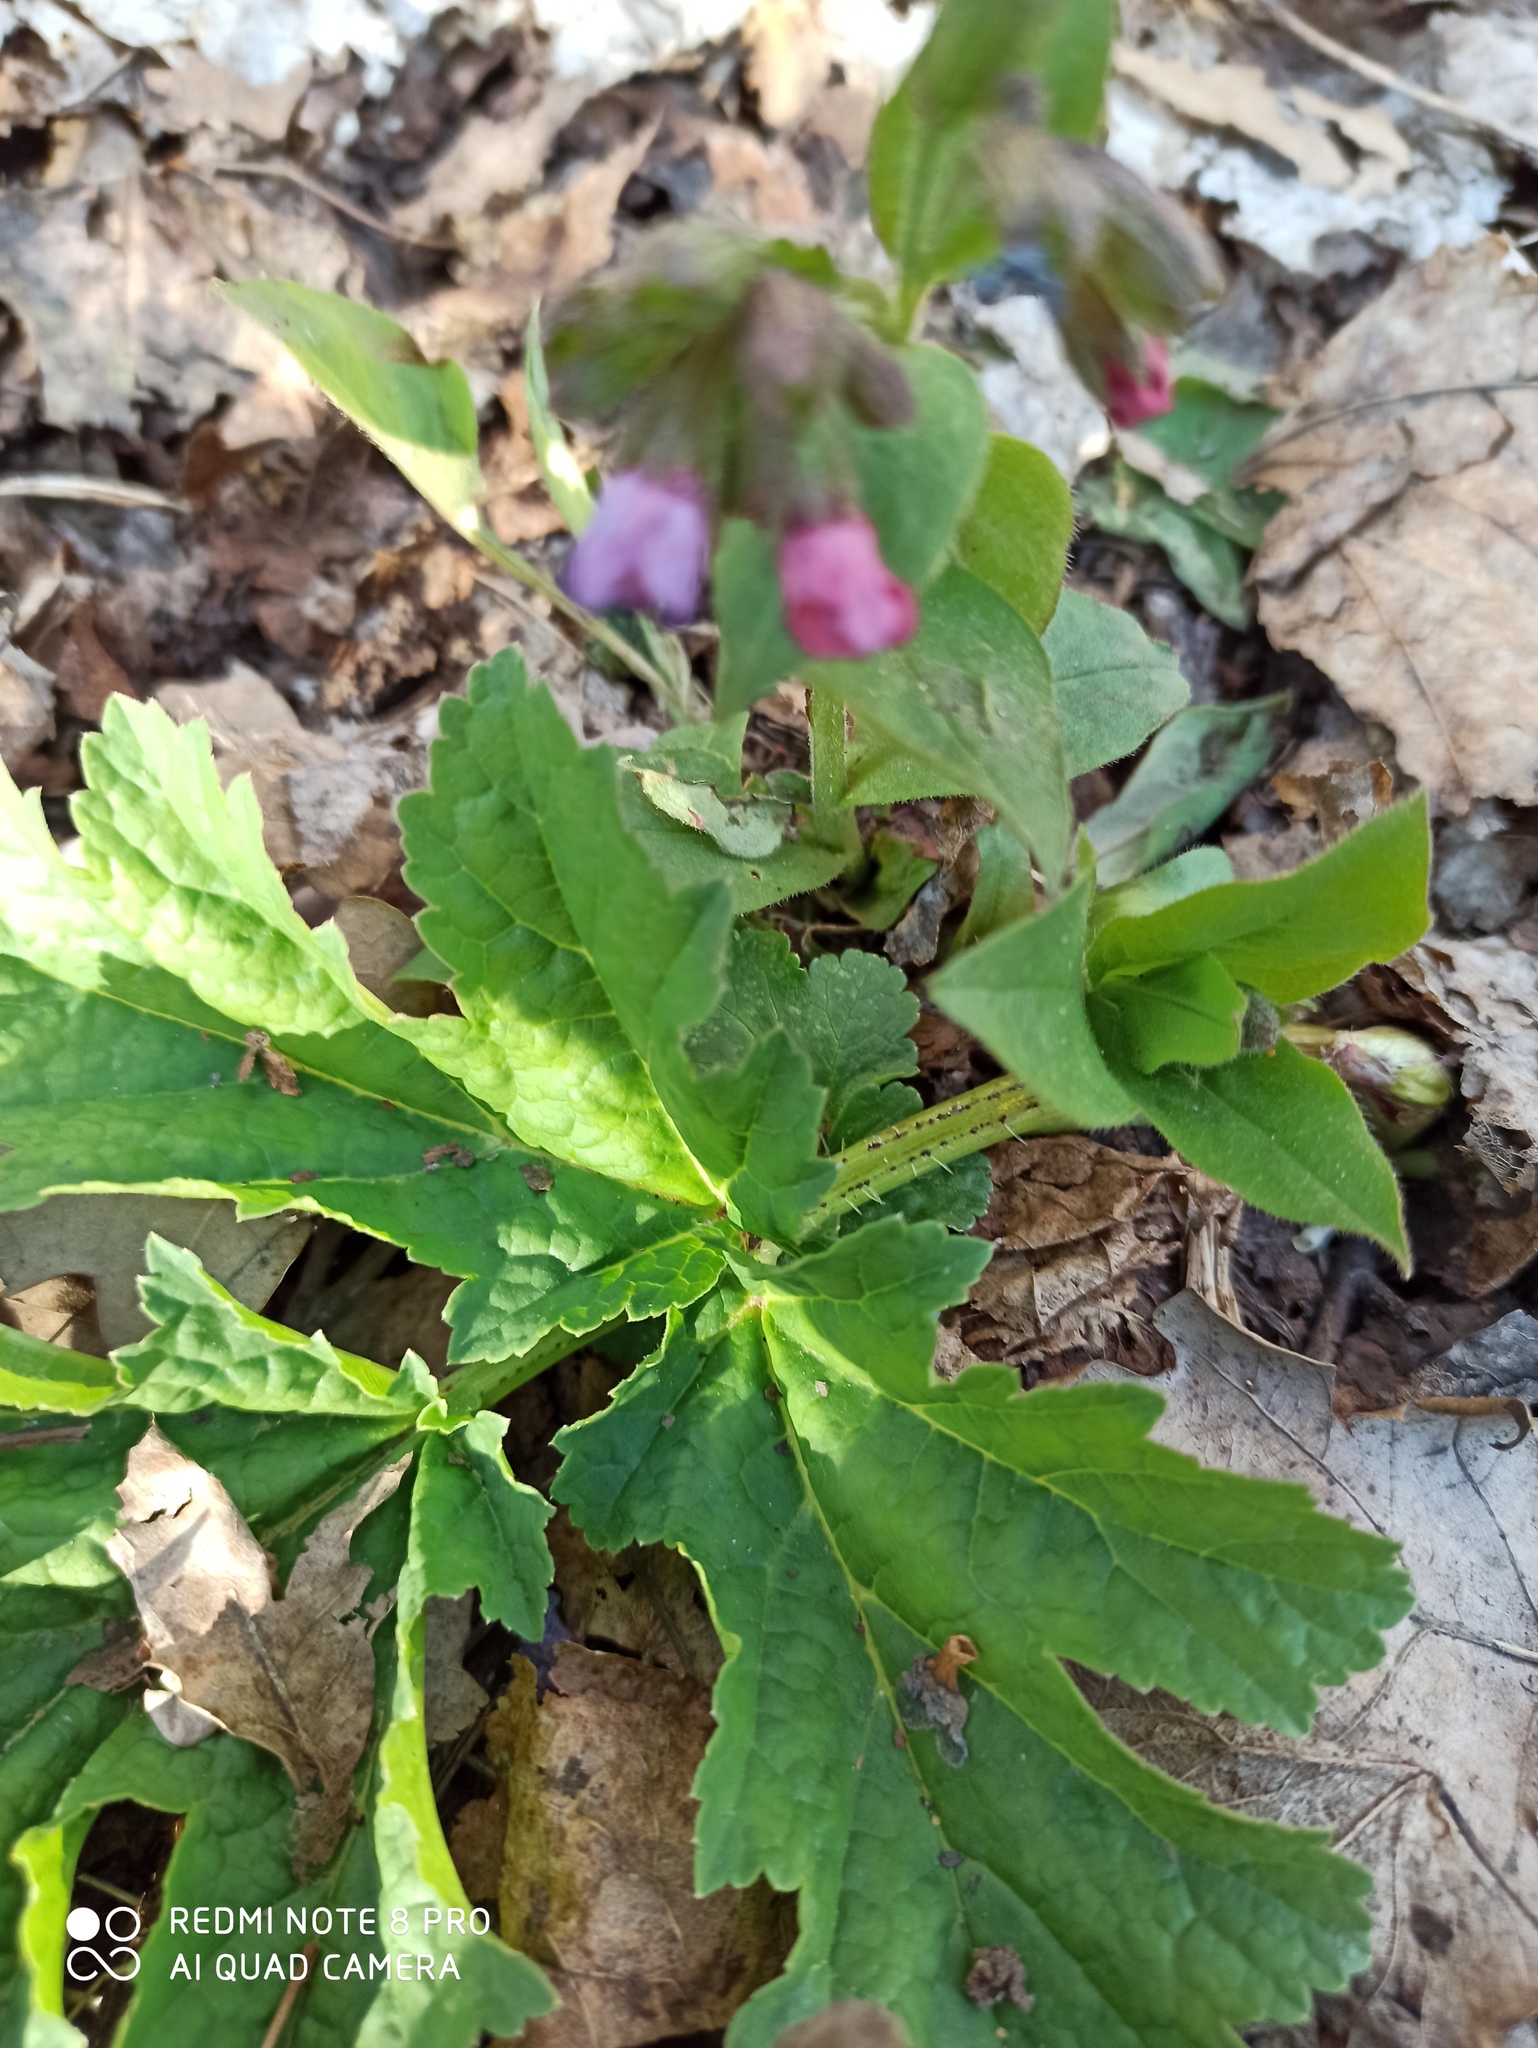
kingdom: Plantae
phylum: Tracheophyta
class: Magnoliopsida
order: Apiales
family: Apiaceae
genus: Heracleum
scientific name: Heracleum sphondylium
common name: Hogweed
